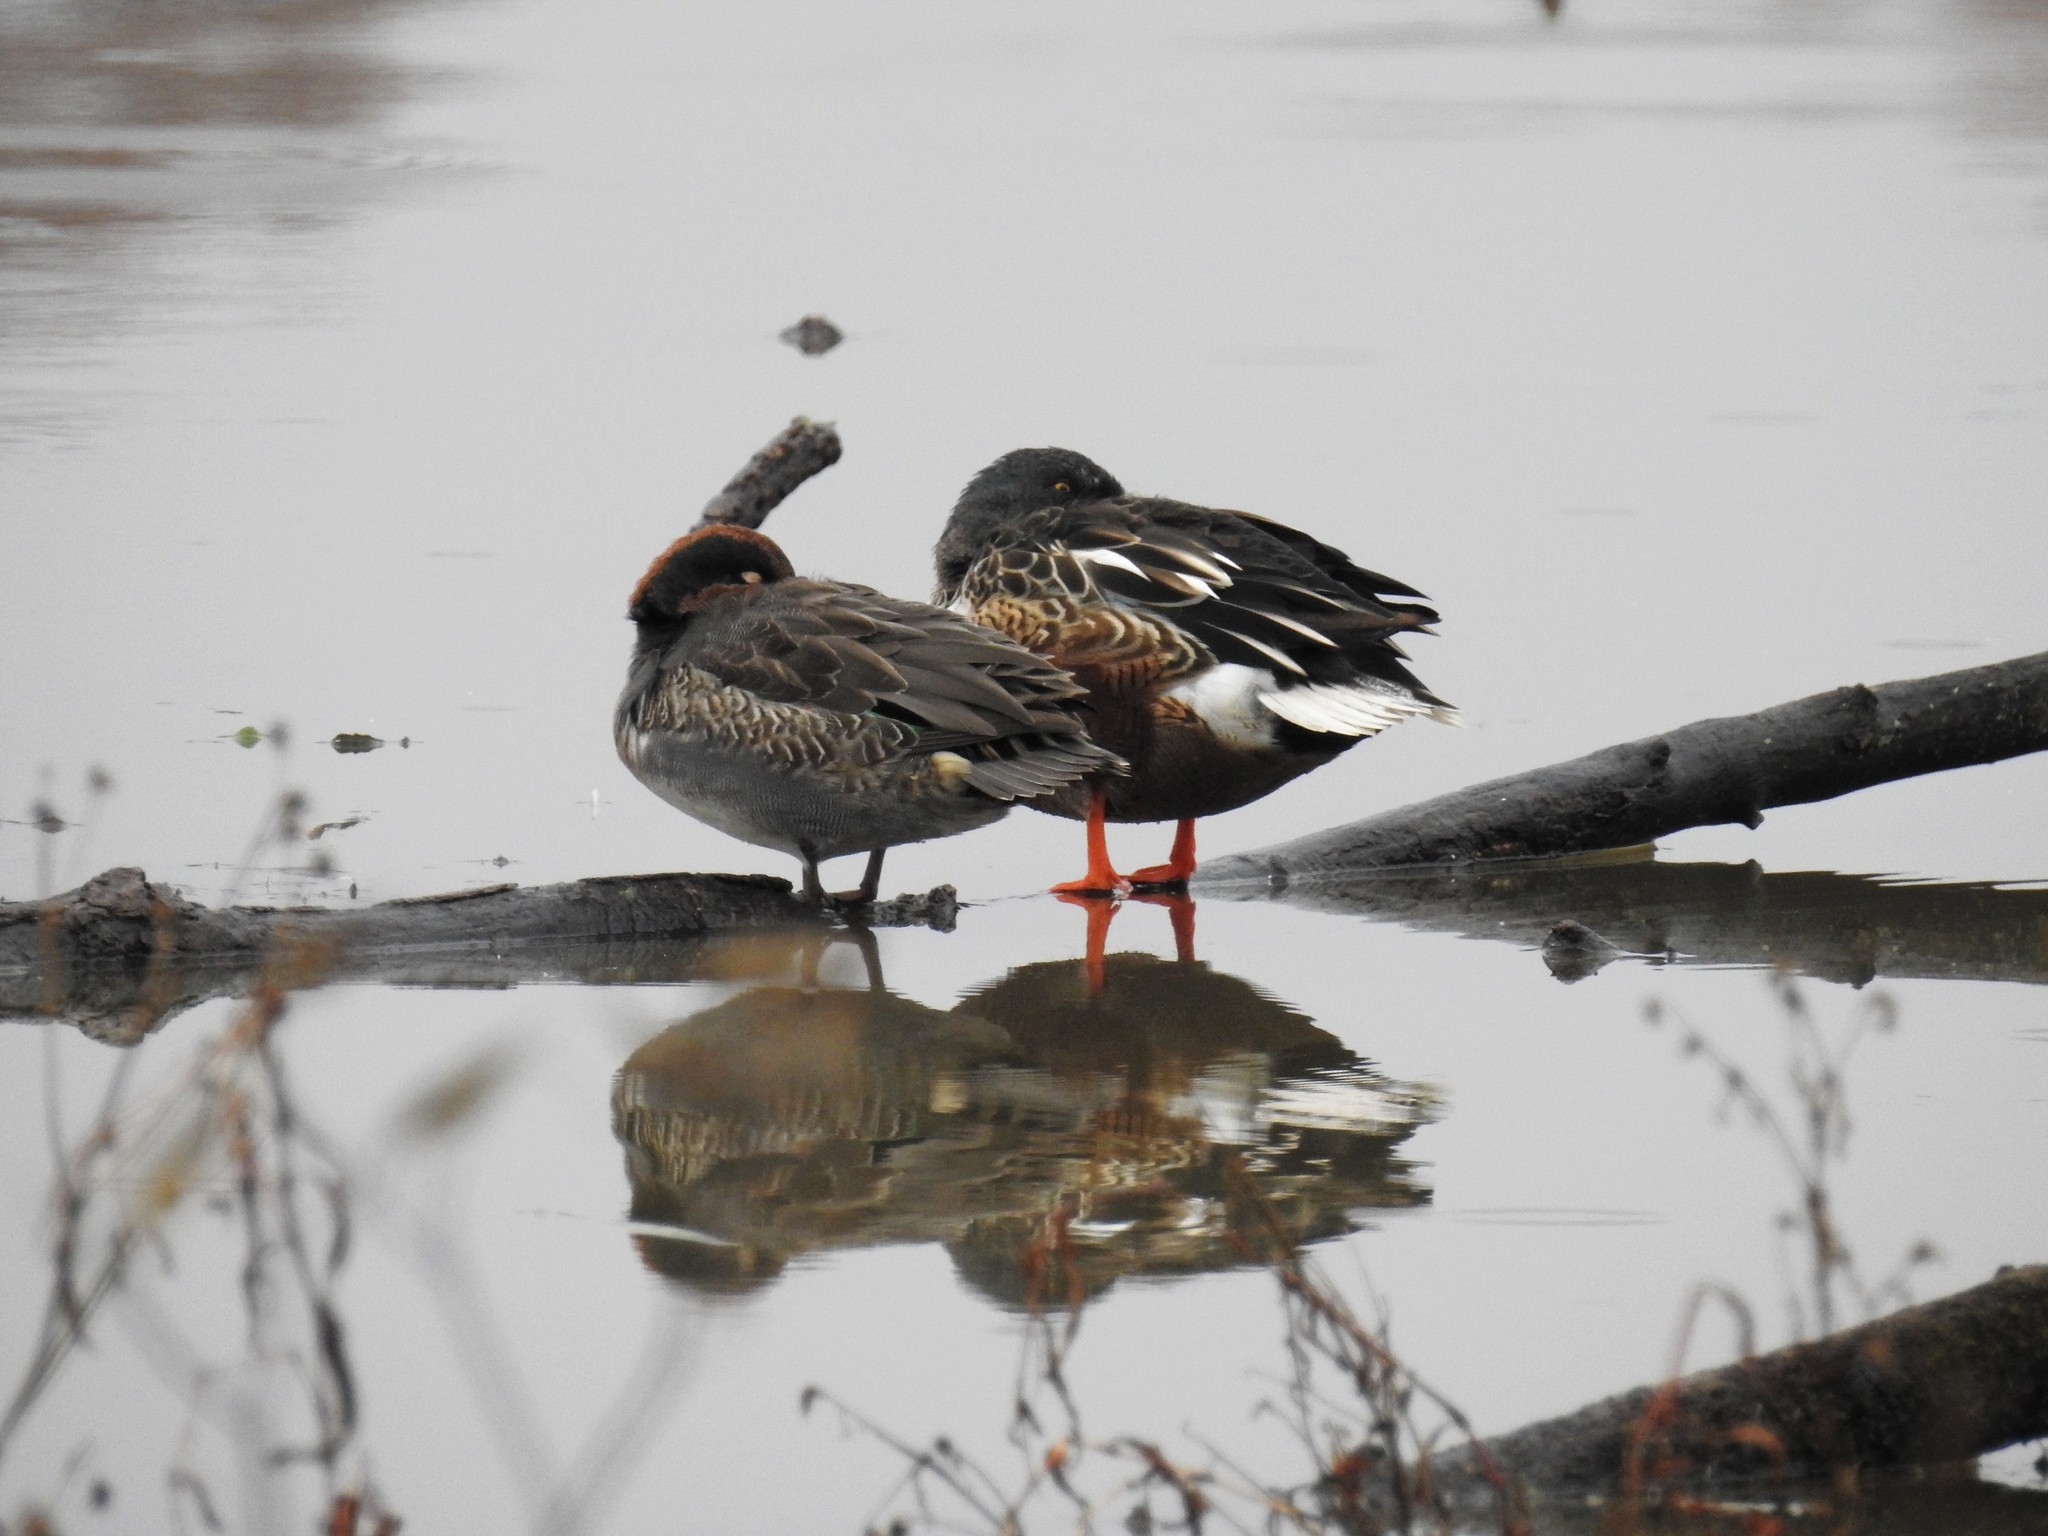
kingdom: Animalia
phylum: Chordata
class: Aves
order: Anseriformes
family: Anatidae
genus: Anas
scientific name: Anas crecca
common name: Eurasian teal
